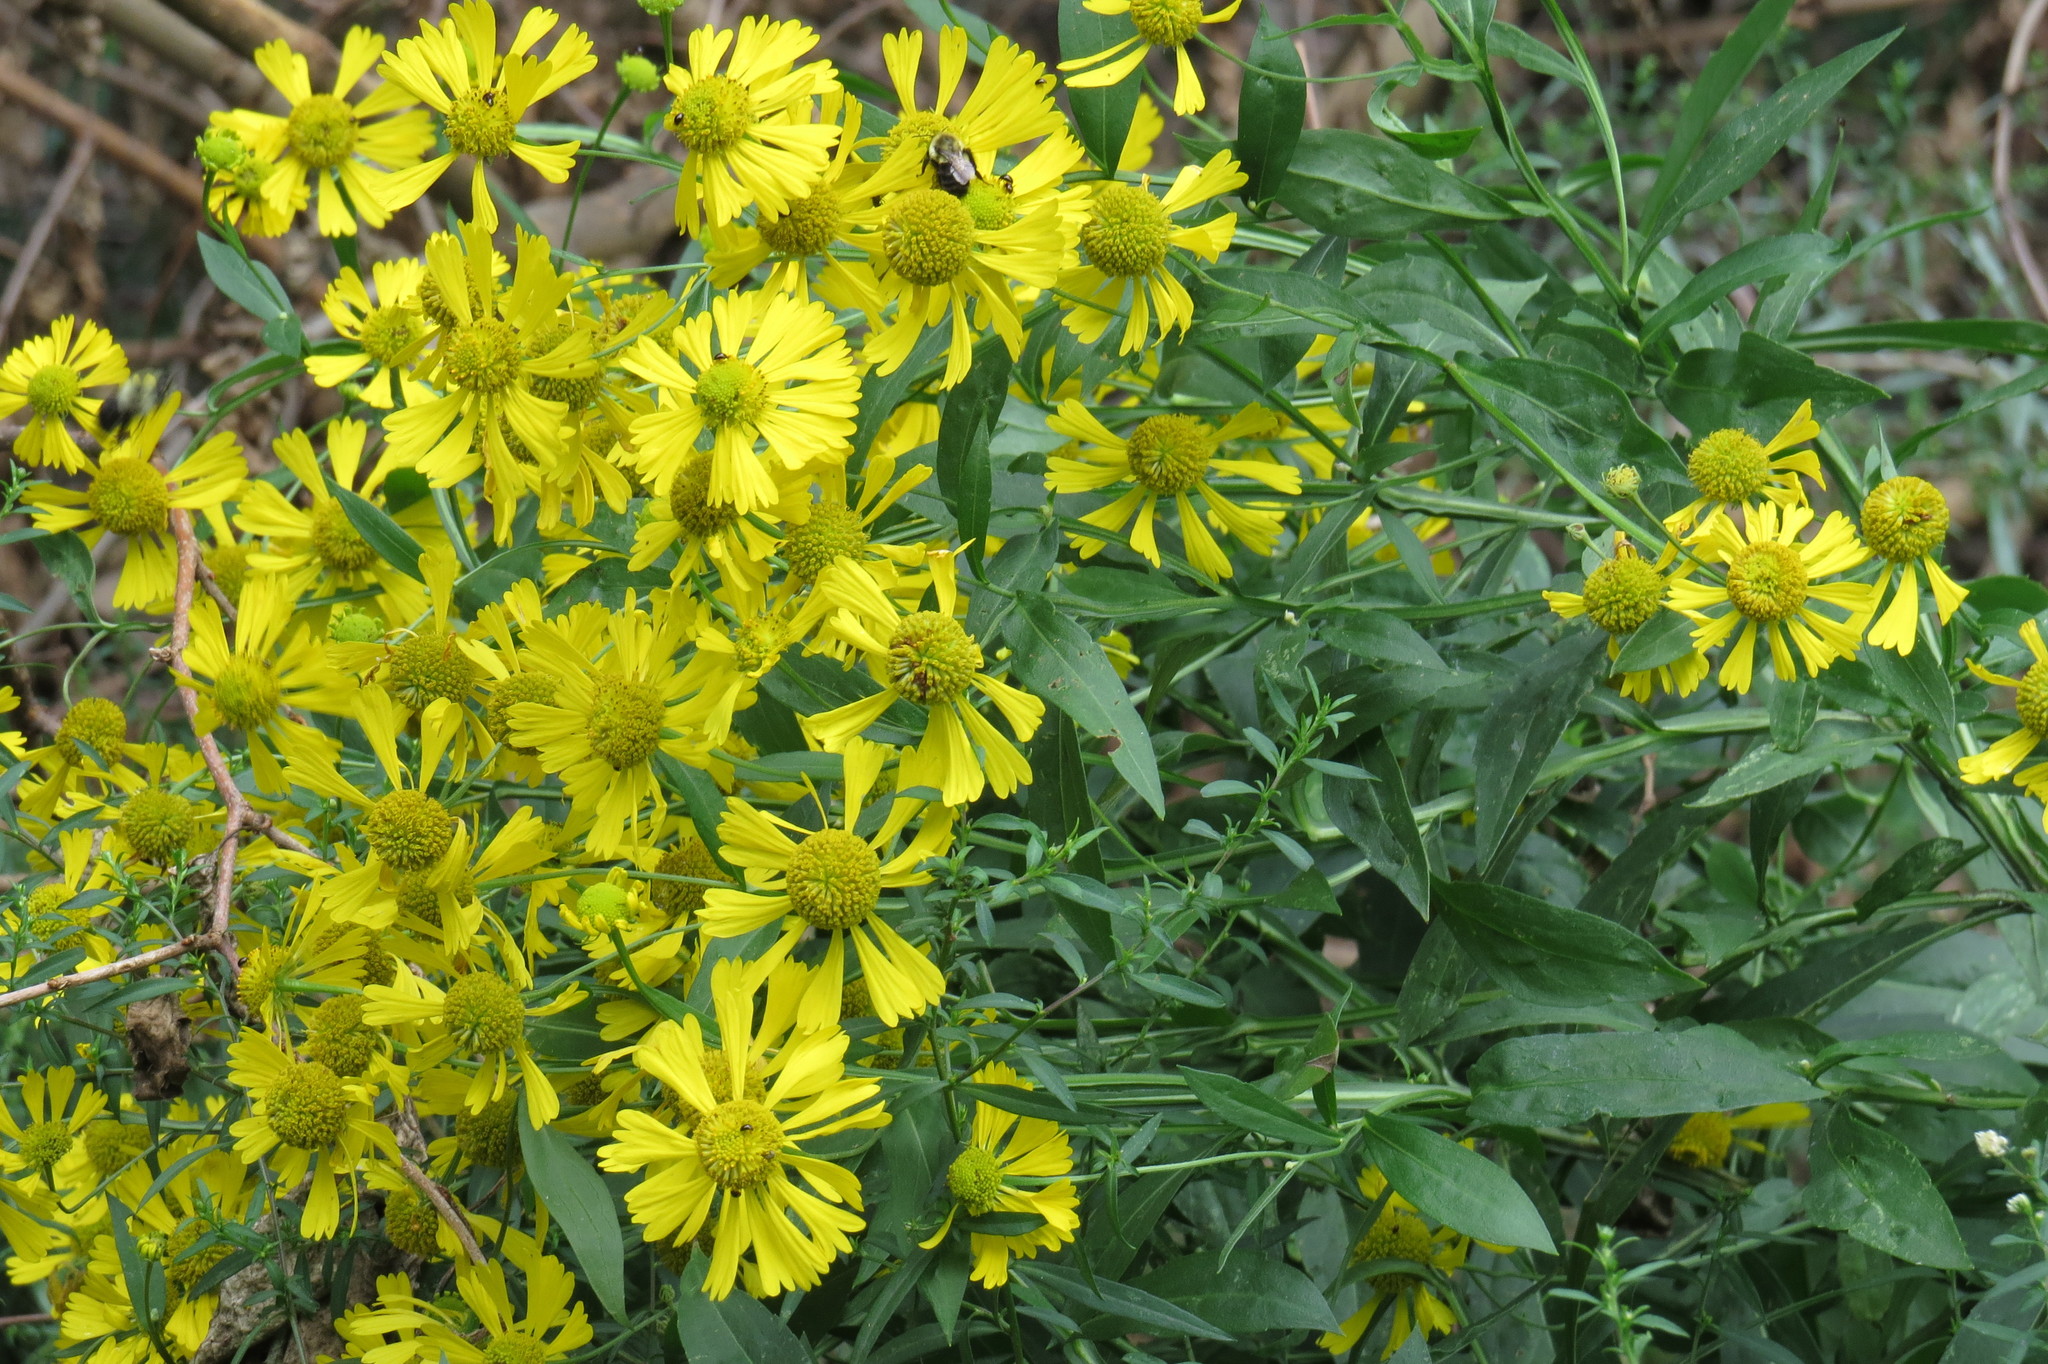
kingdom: Plantae
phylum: Tracheophyta
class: Magnoliopsida
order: Asterales
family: Asteraceae
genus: Helenium
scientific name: Helenium autumnale
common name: Sneezeweed
